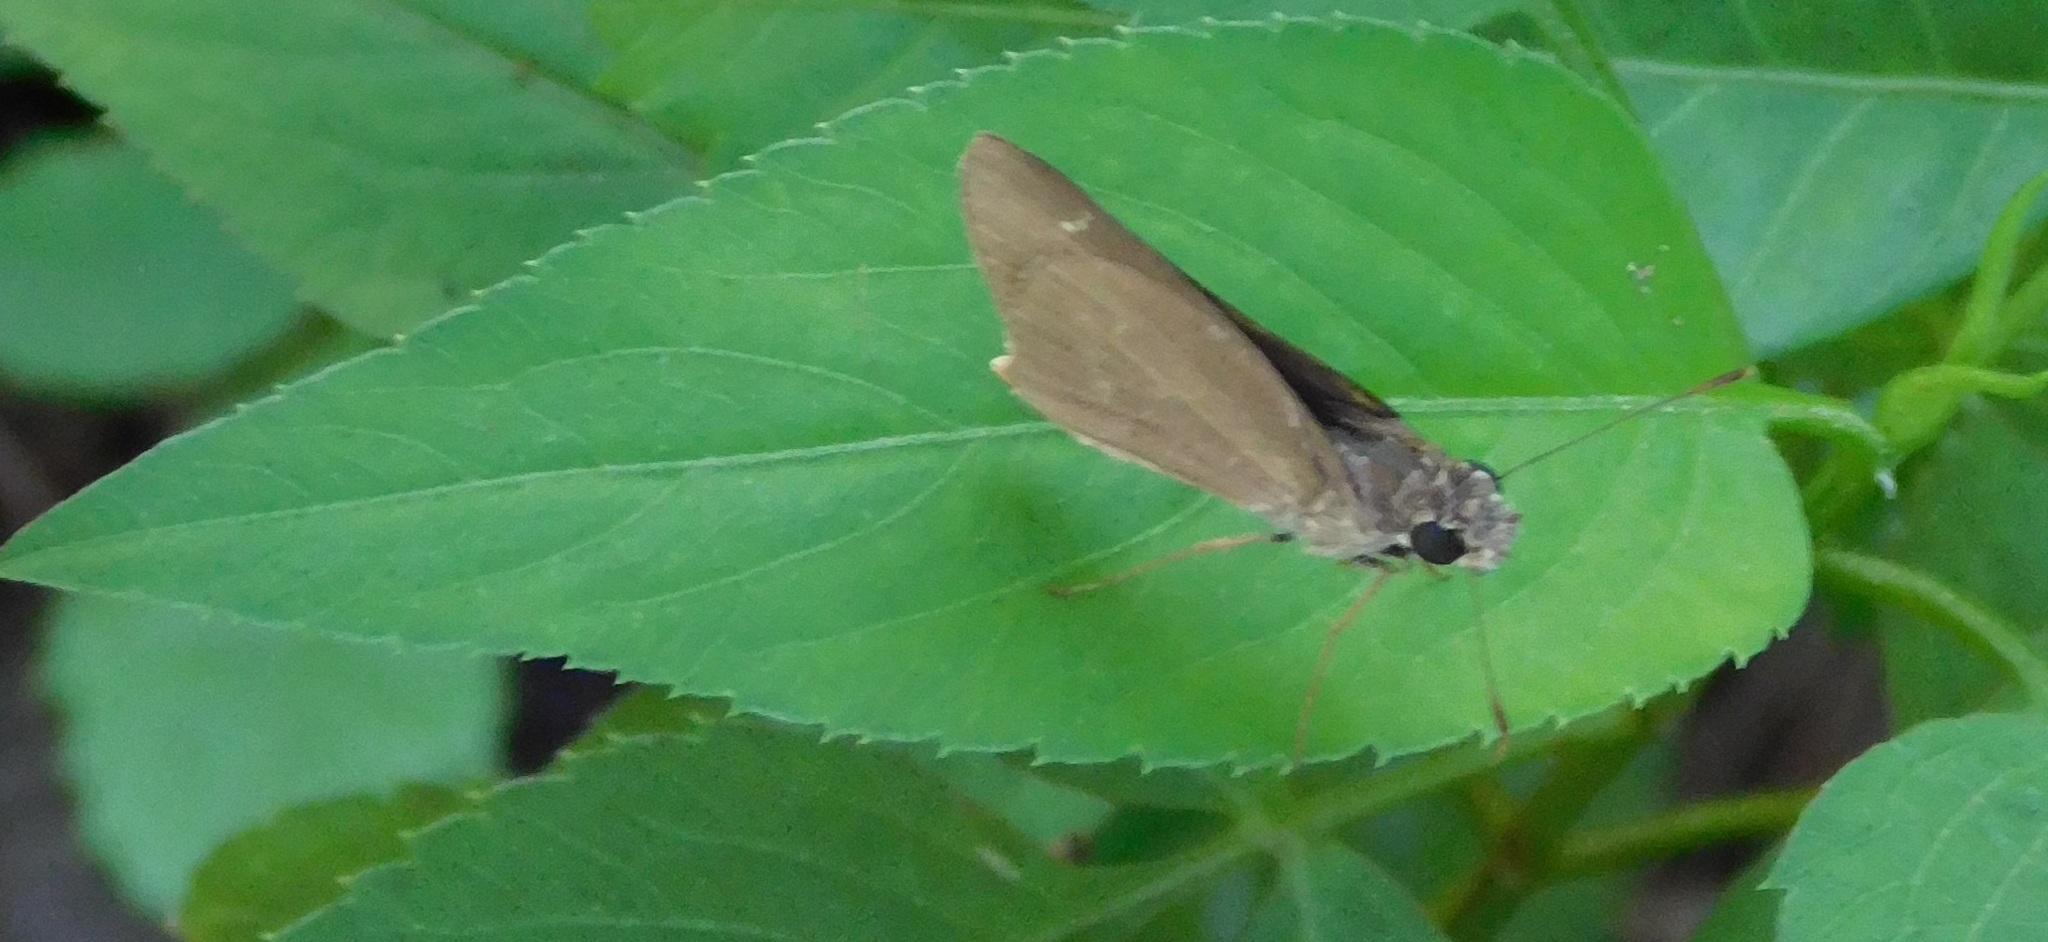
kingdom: Animalia
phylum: Arthropoda
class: Insecta
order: Lepidoptera
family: Hesperiidae
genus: Cymaenes
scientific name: Cymaenes tripunctus
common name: Dingy dotted skipper
